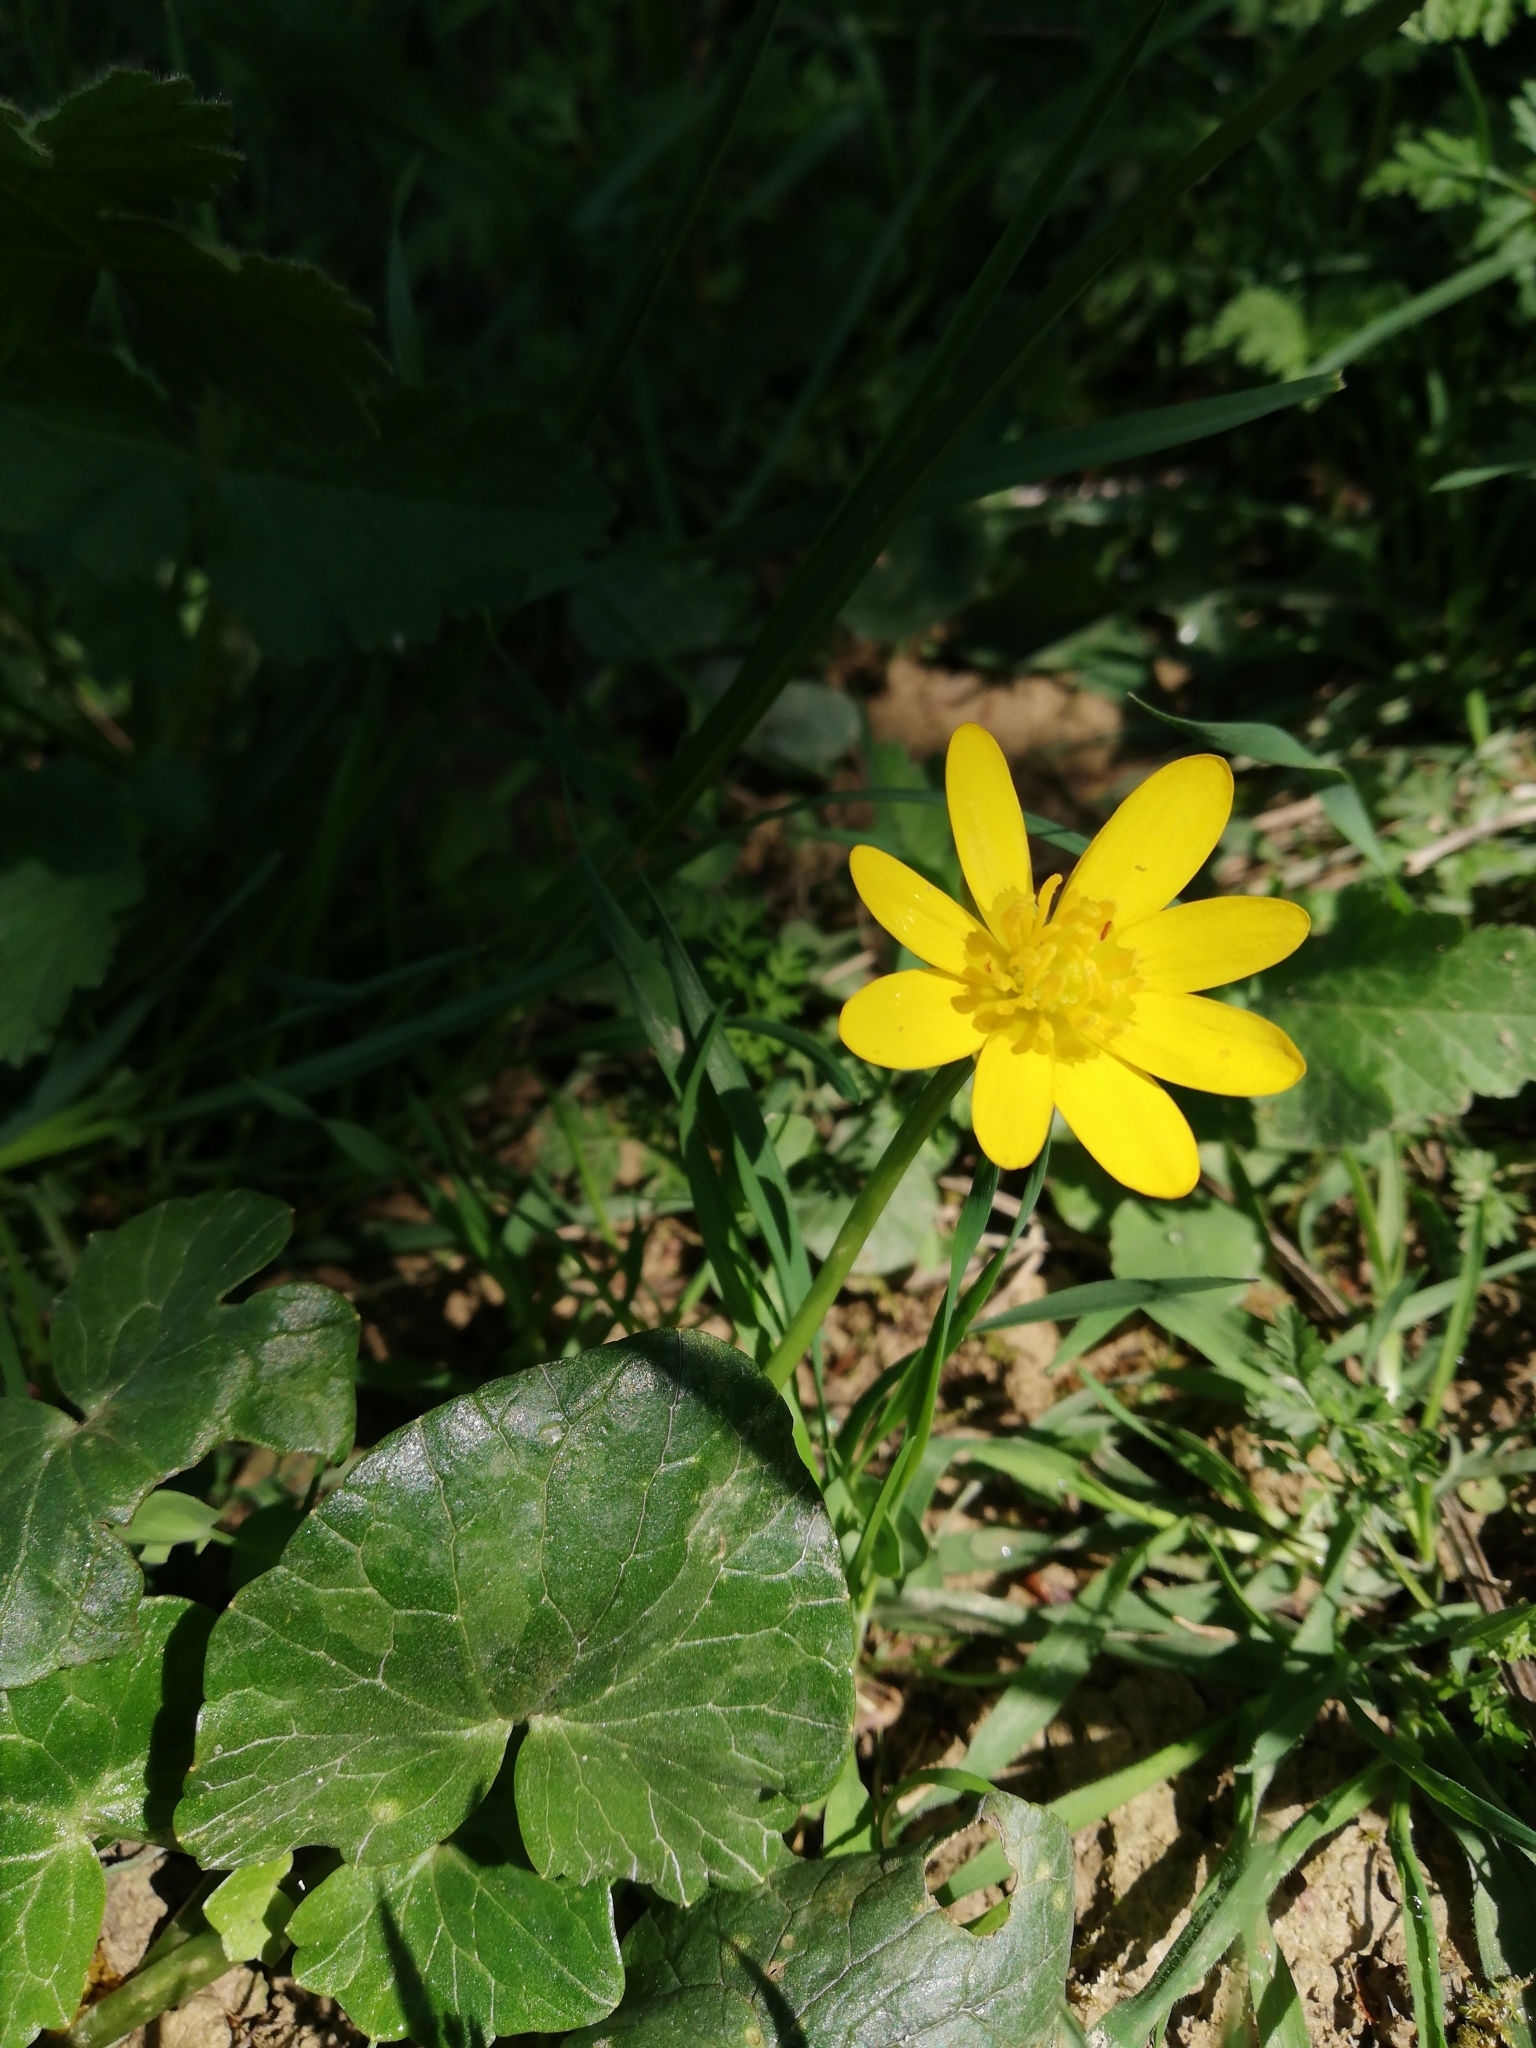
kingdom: Plantae
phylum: Tracheophyta
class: Magnoliopsida
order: Ranunculales
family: Ranunculaceae
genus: Ficaria
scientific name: Ficaria verna
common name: Lesser celandine
